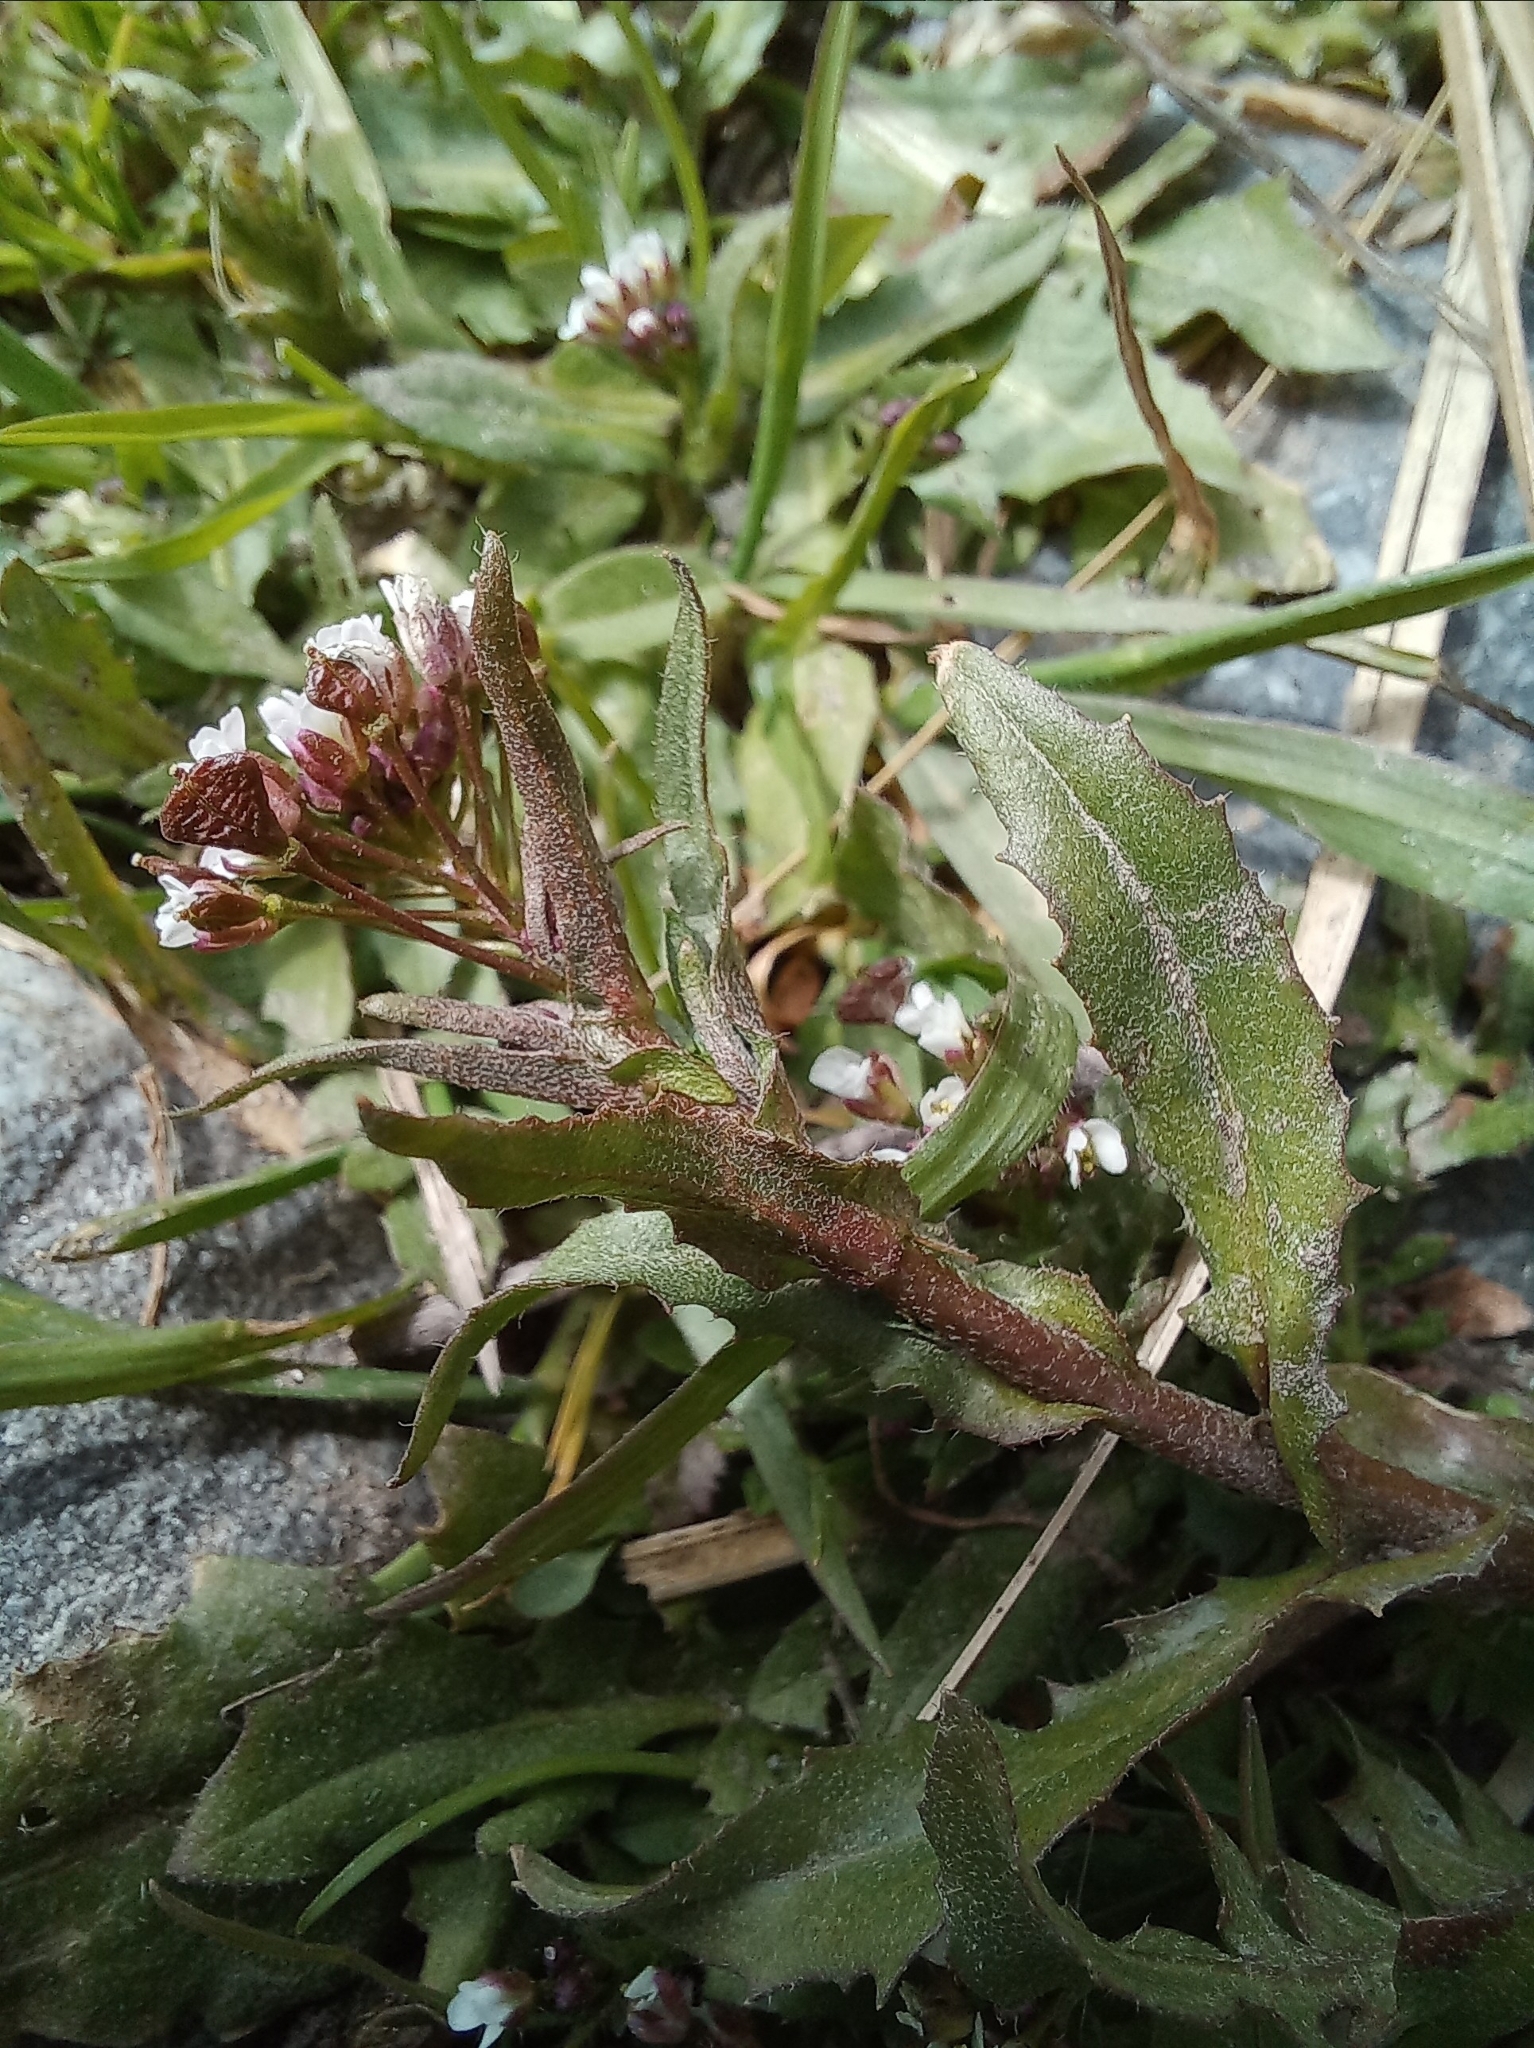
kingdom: Plantae
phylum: Tracheophyta
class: Magnoliopsida
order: Brassicales
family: Brassicaceae
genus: Capsella
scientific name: Capsella bursa-pastoris
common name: Shepherd's purse
